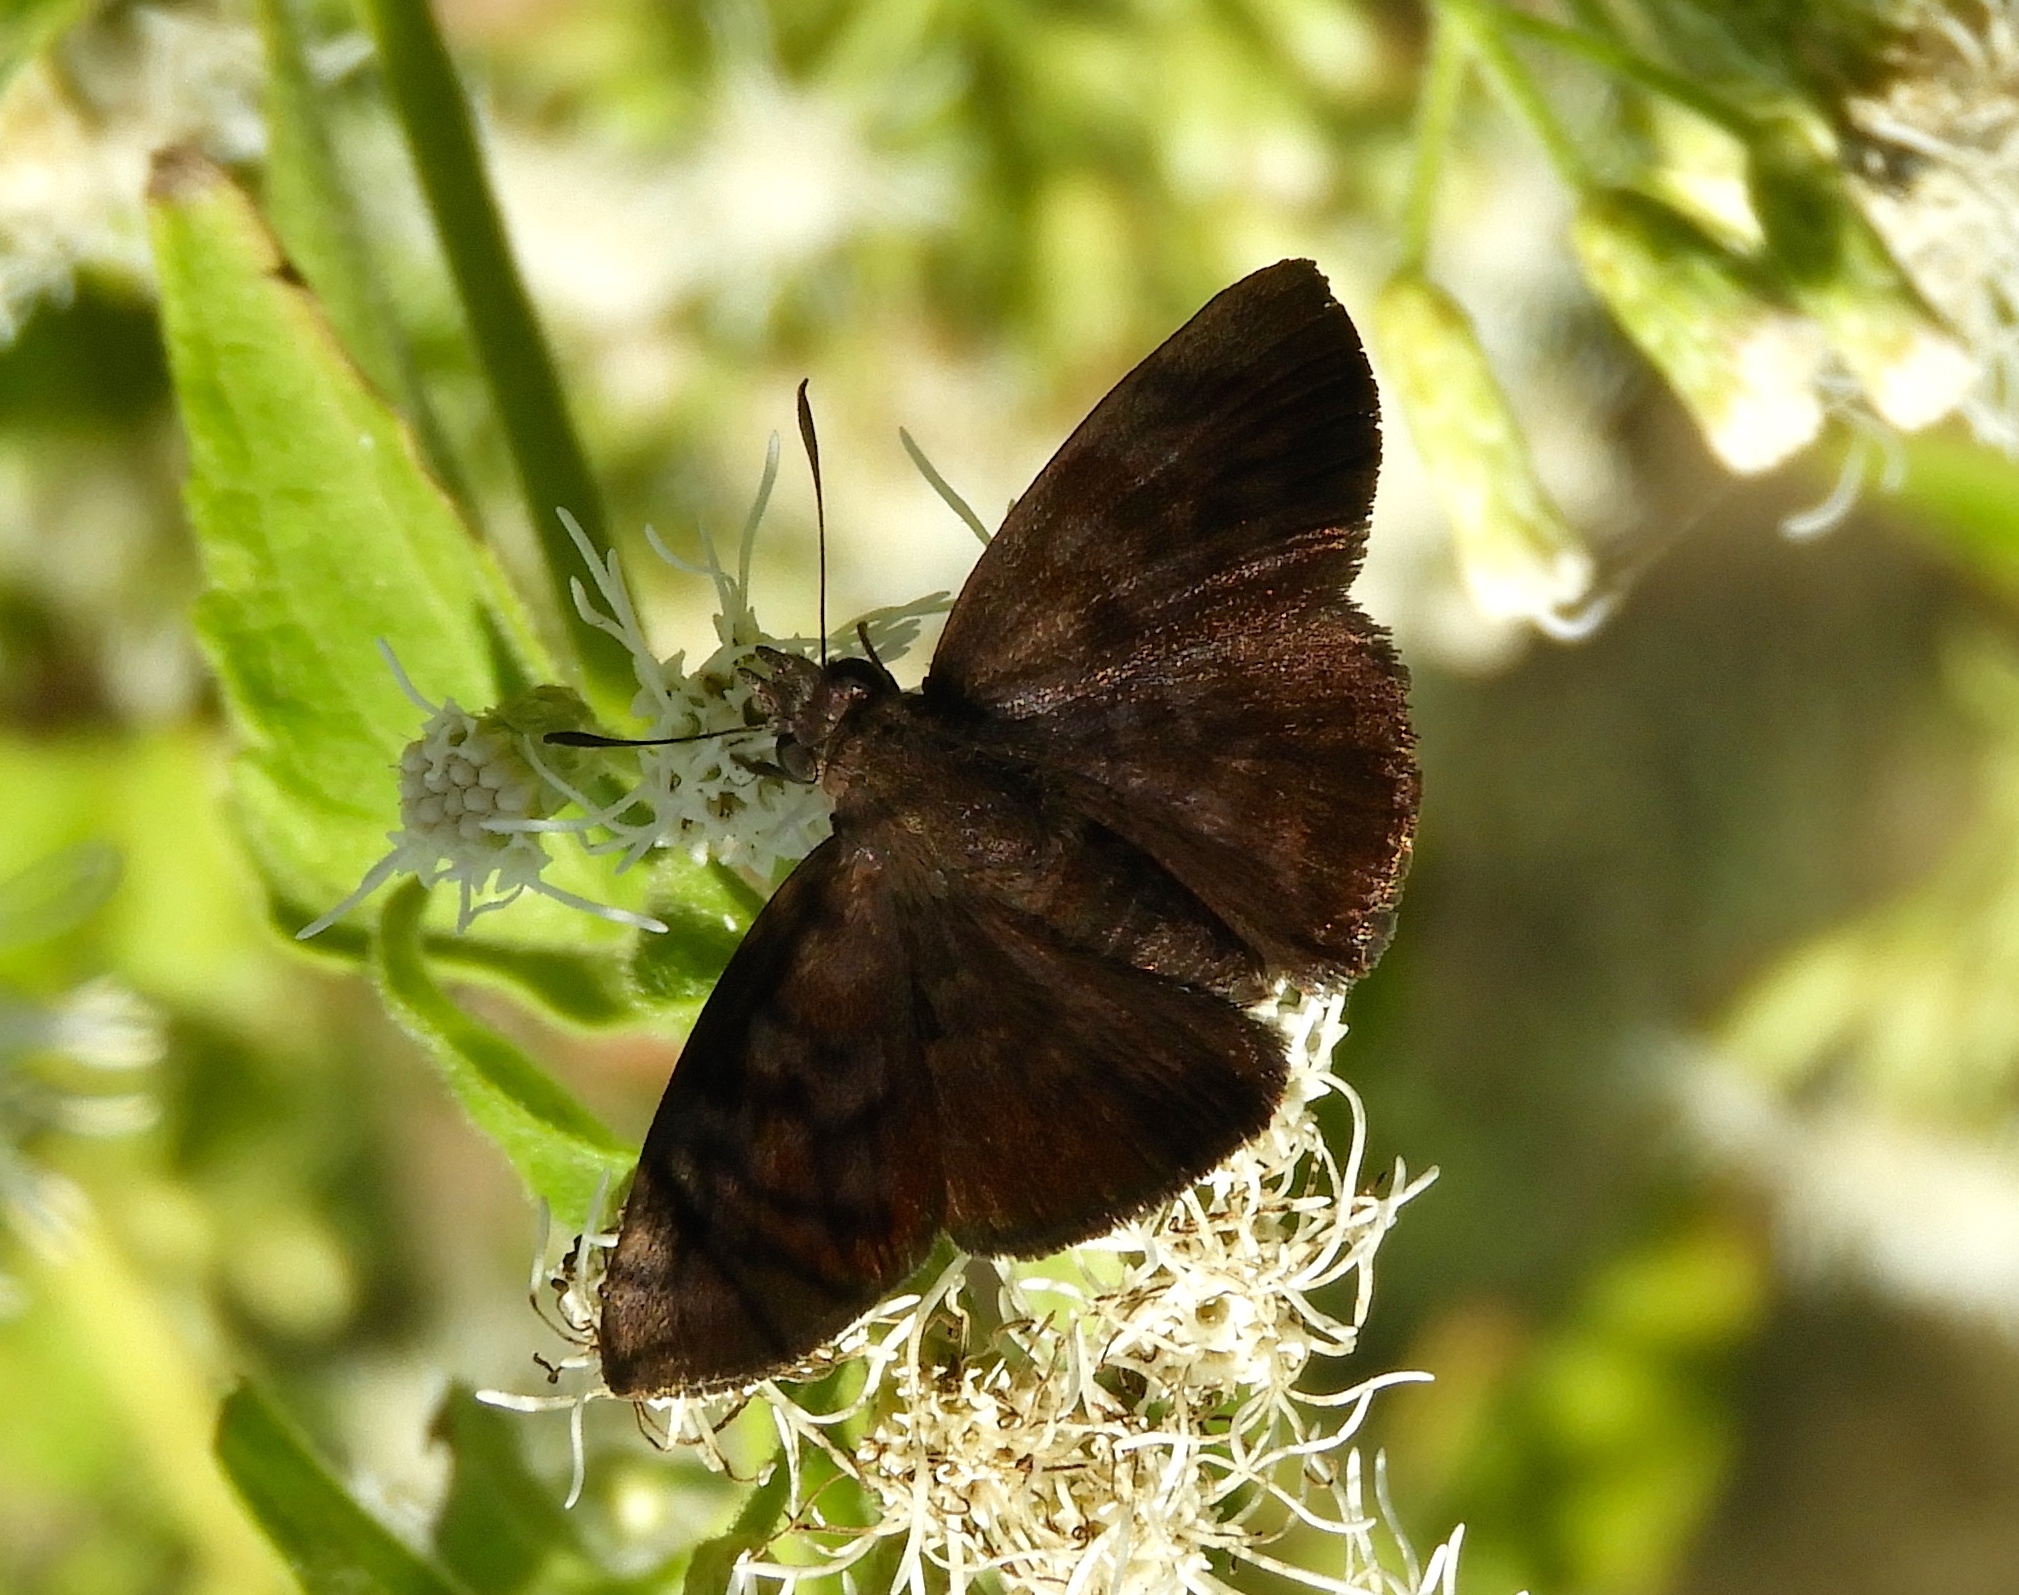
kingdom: Animalia
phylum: Arthropoda
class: Insecta
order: Lepidoptera
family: Hesperiidae
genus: Pellicia
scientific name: Pellicia dimidiata
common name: Morning glory pellicia
